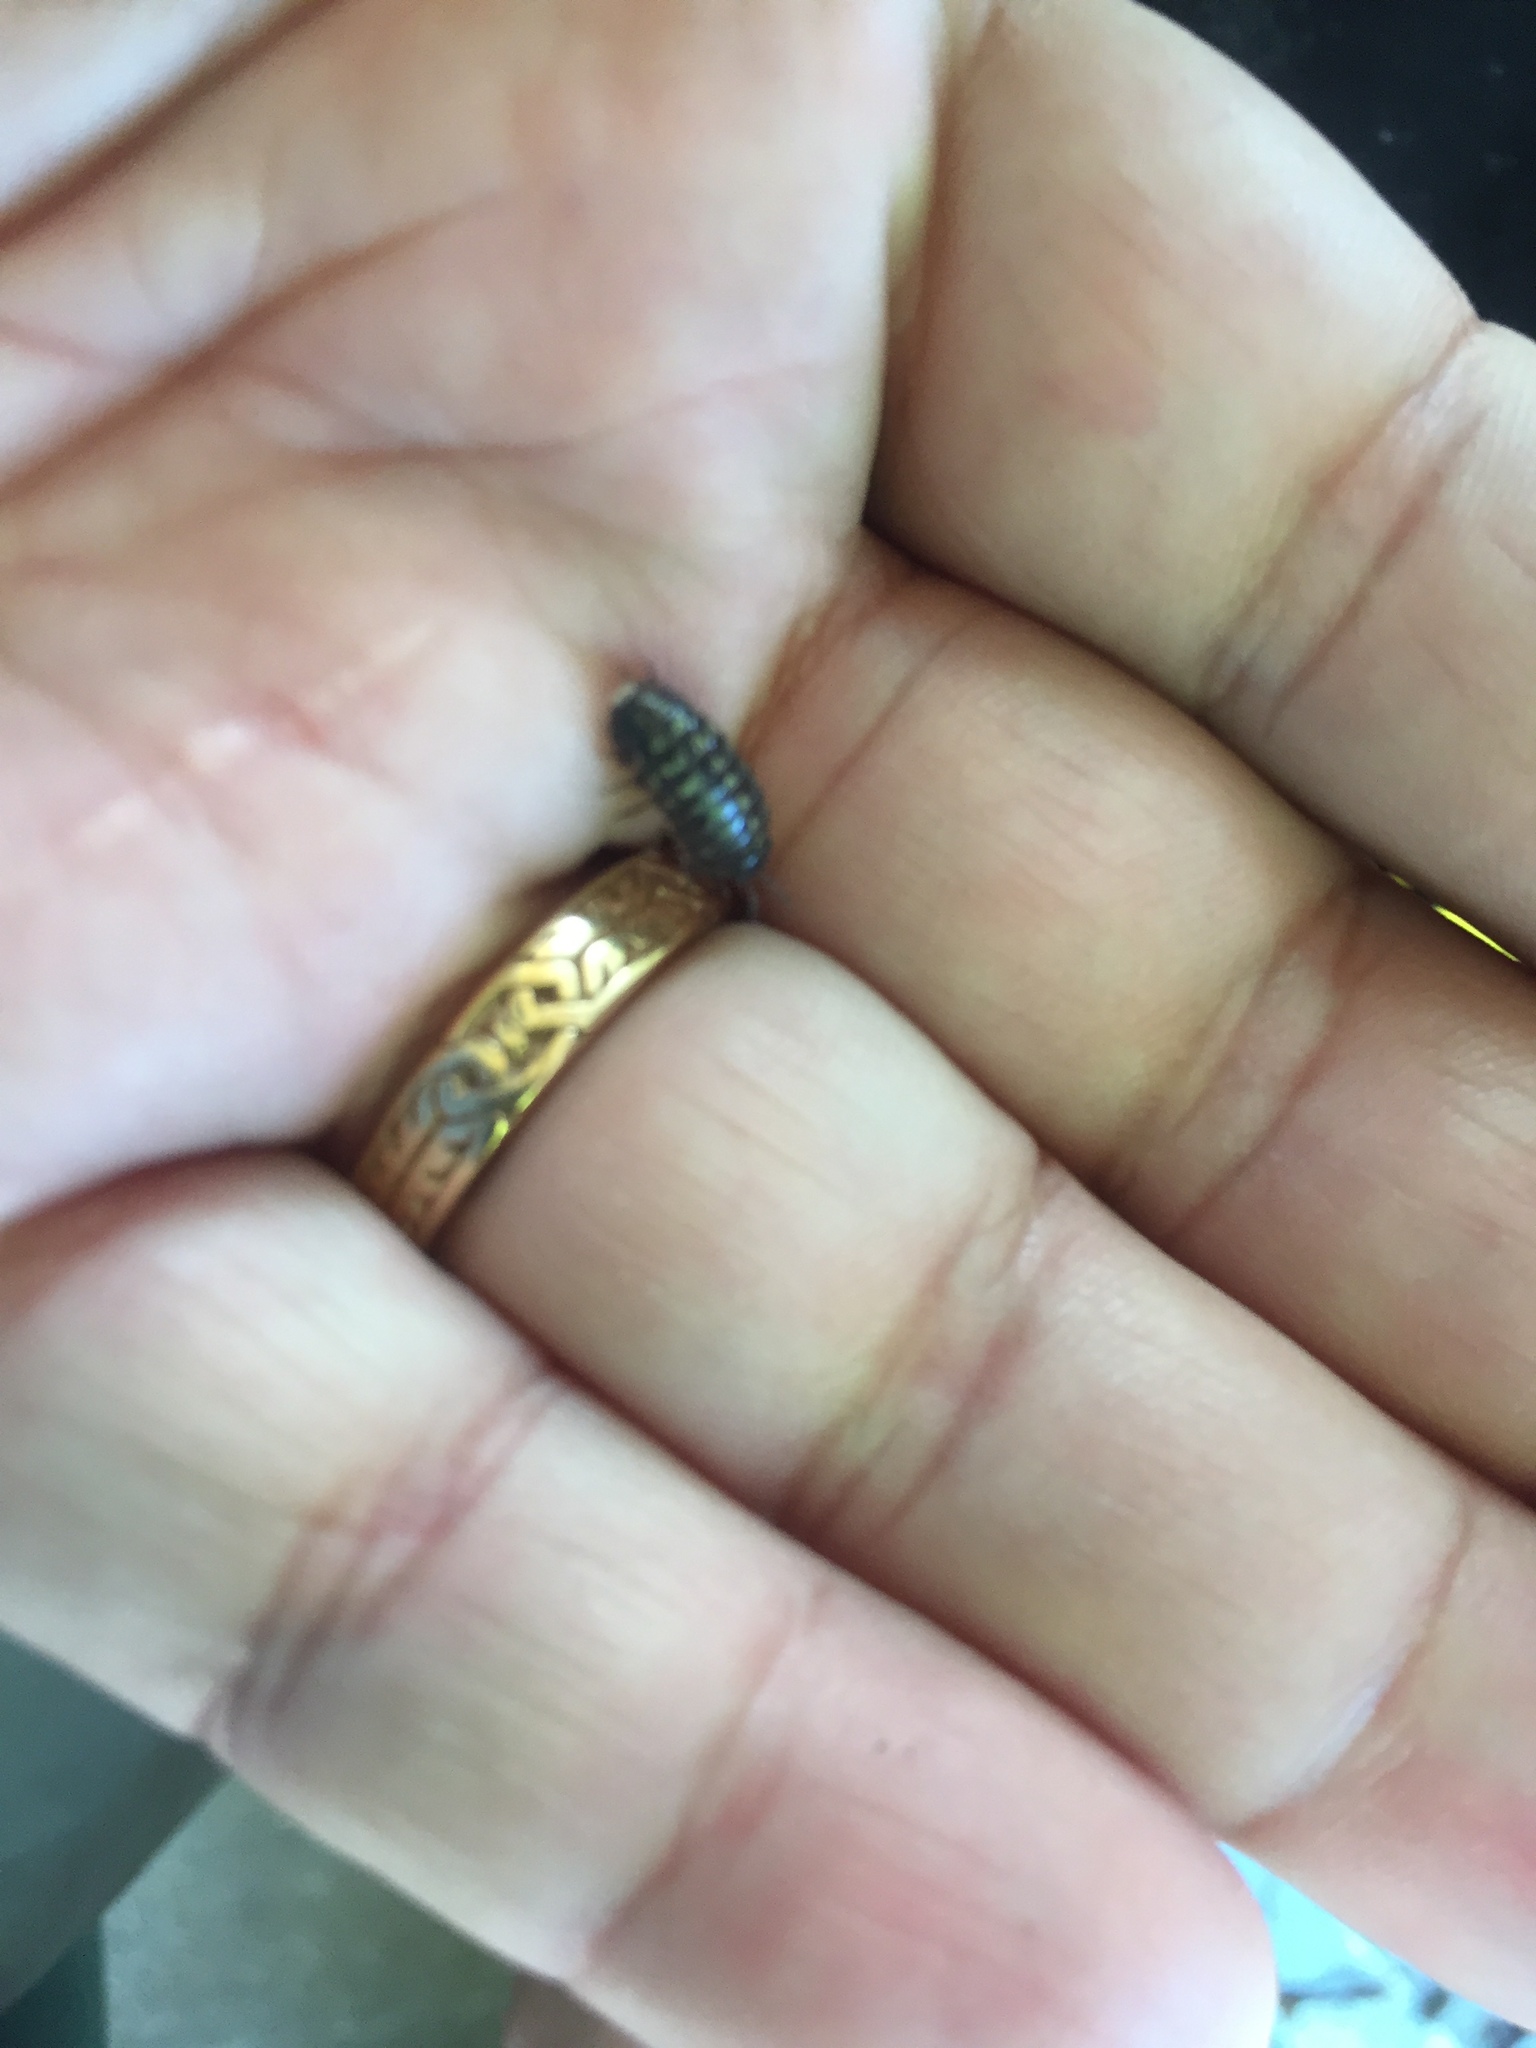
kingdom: Animalia
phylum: Arthropoda
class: Malacostraca
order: Isopoda
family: Armadillidiidae
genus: Armadillidium
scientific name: Armadillidium vulgare
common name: Common pill woodlouse
